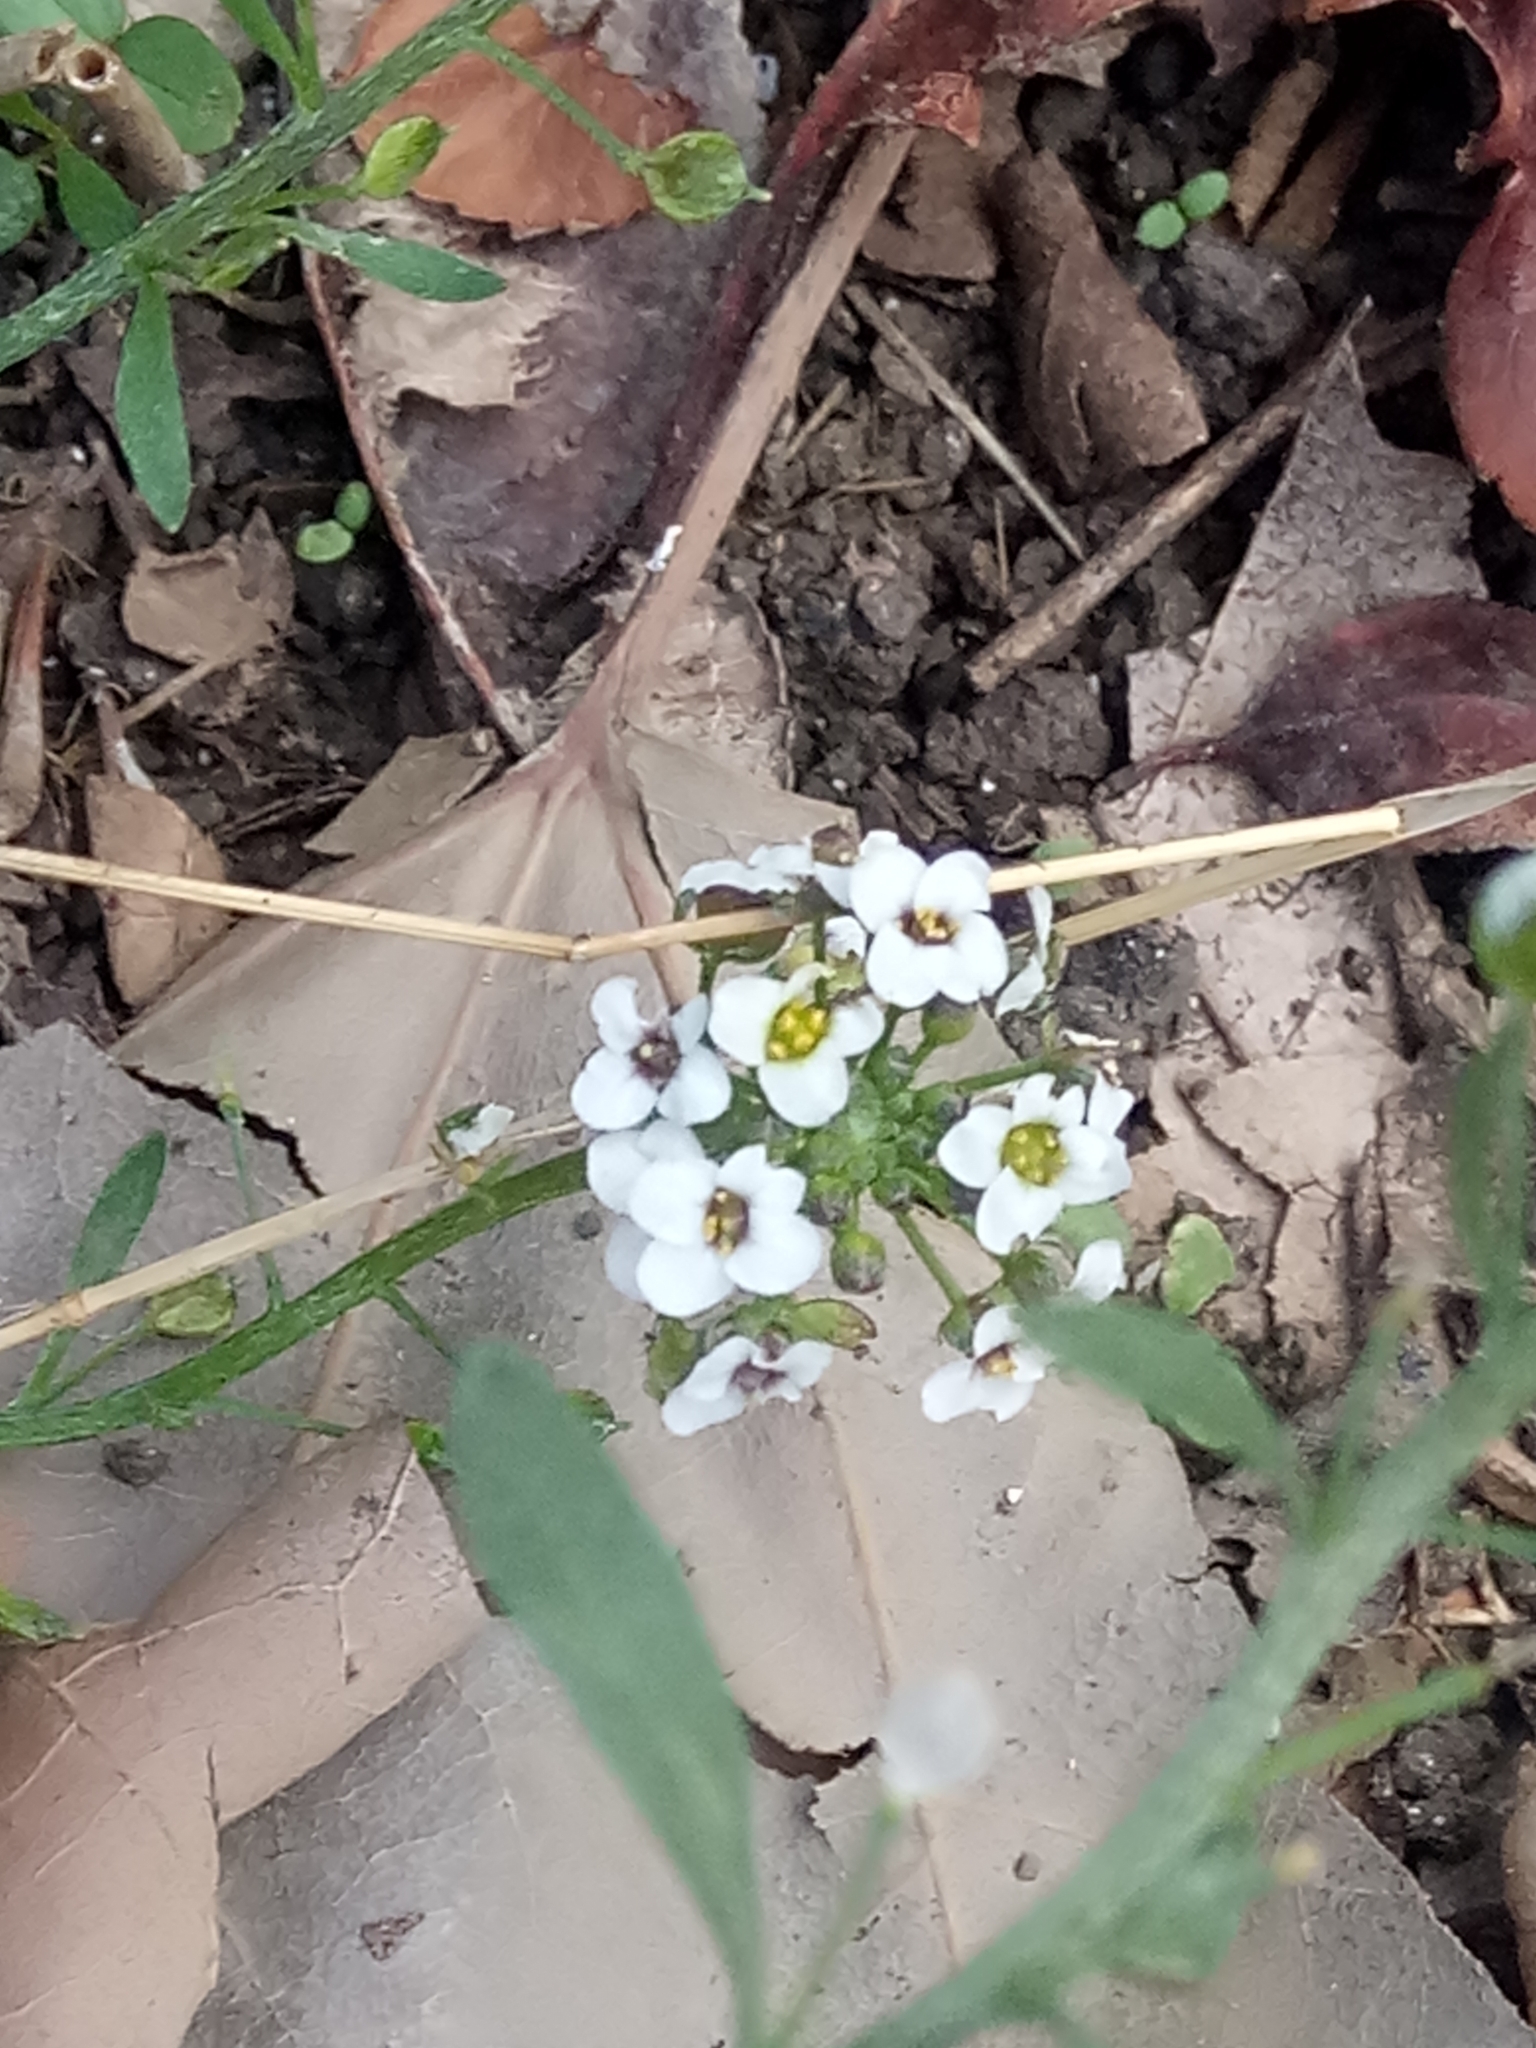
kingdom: Plantae
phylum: Tracheophyta
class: Magnoliopsida
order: Brassicales
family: Brassicaceae
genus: Lobularia
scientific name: Lobularia maritima
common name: Sweet alison
